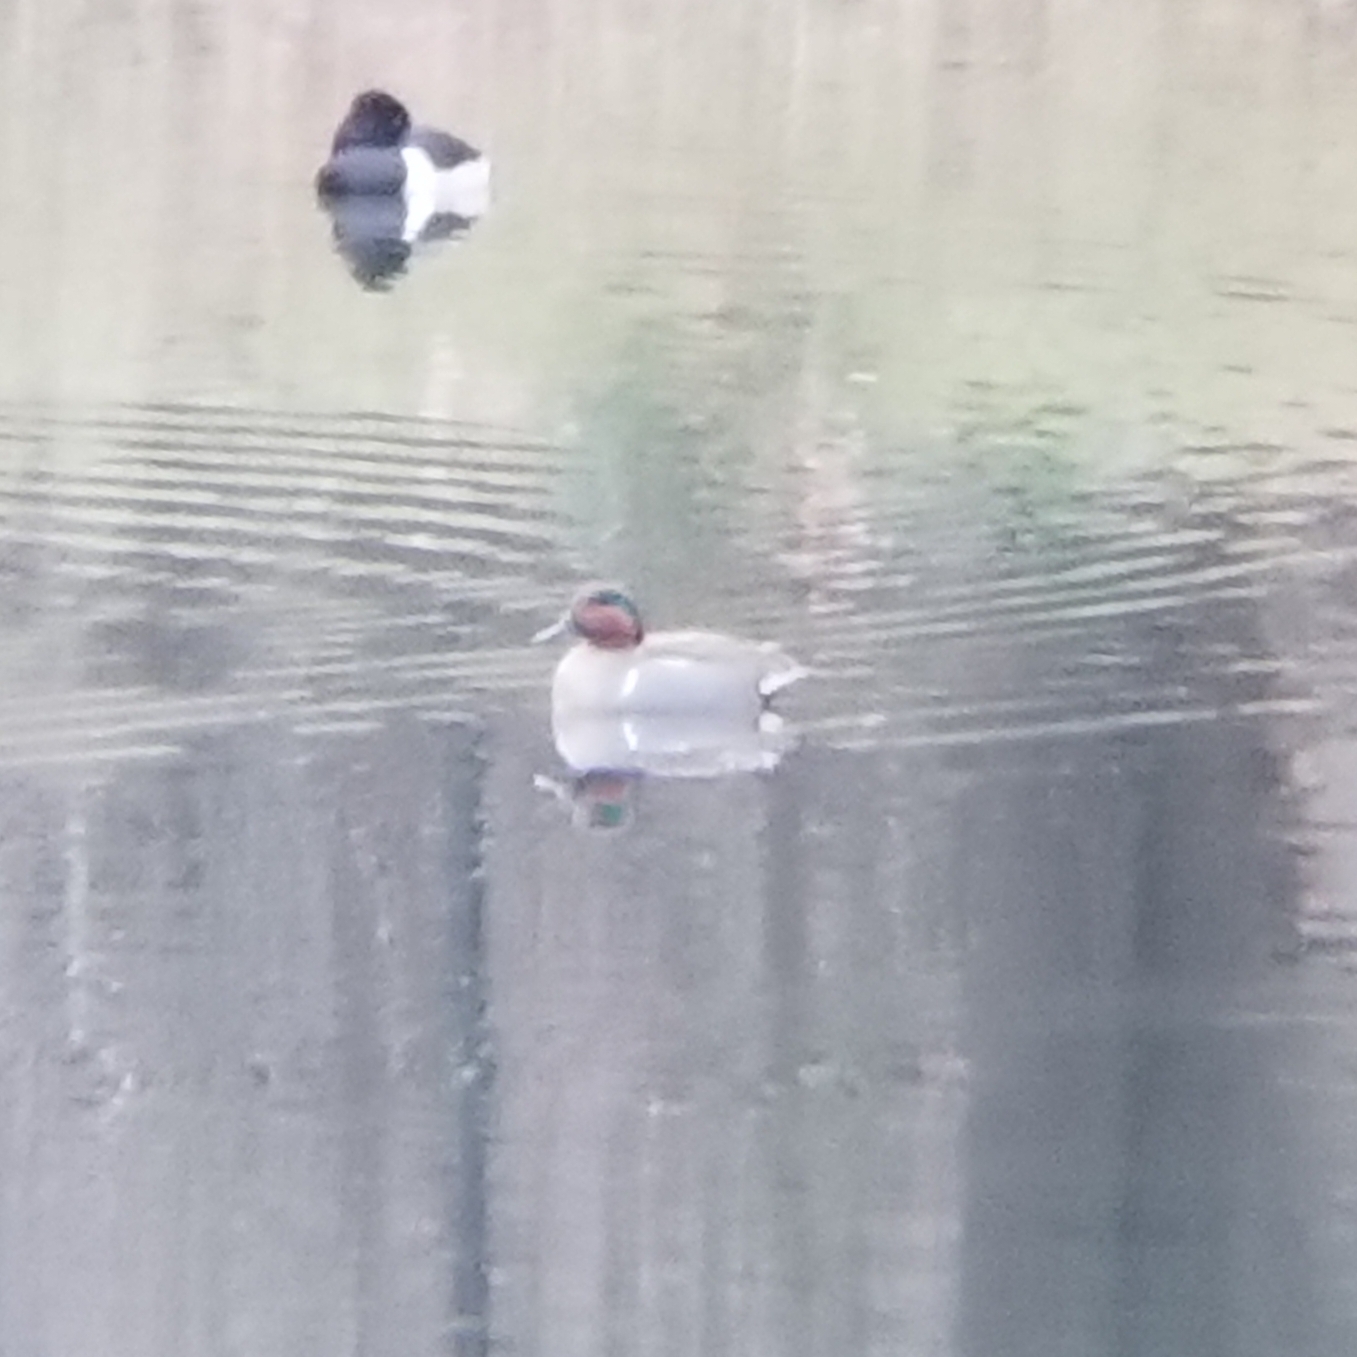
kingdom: Animalia
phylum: Chordata
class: Aves
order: Anseriformes
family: Anatidae
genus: Anas
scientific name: Anas crecca
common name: Eurasian teal
